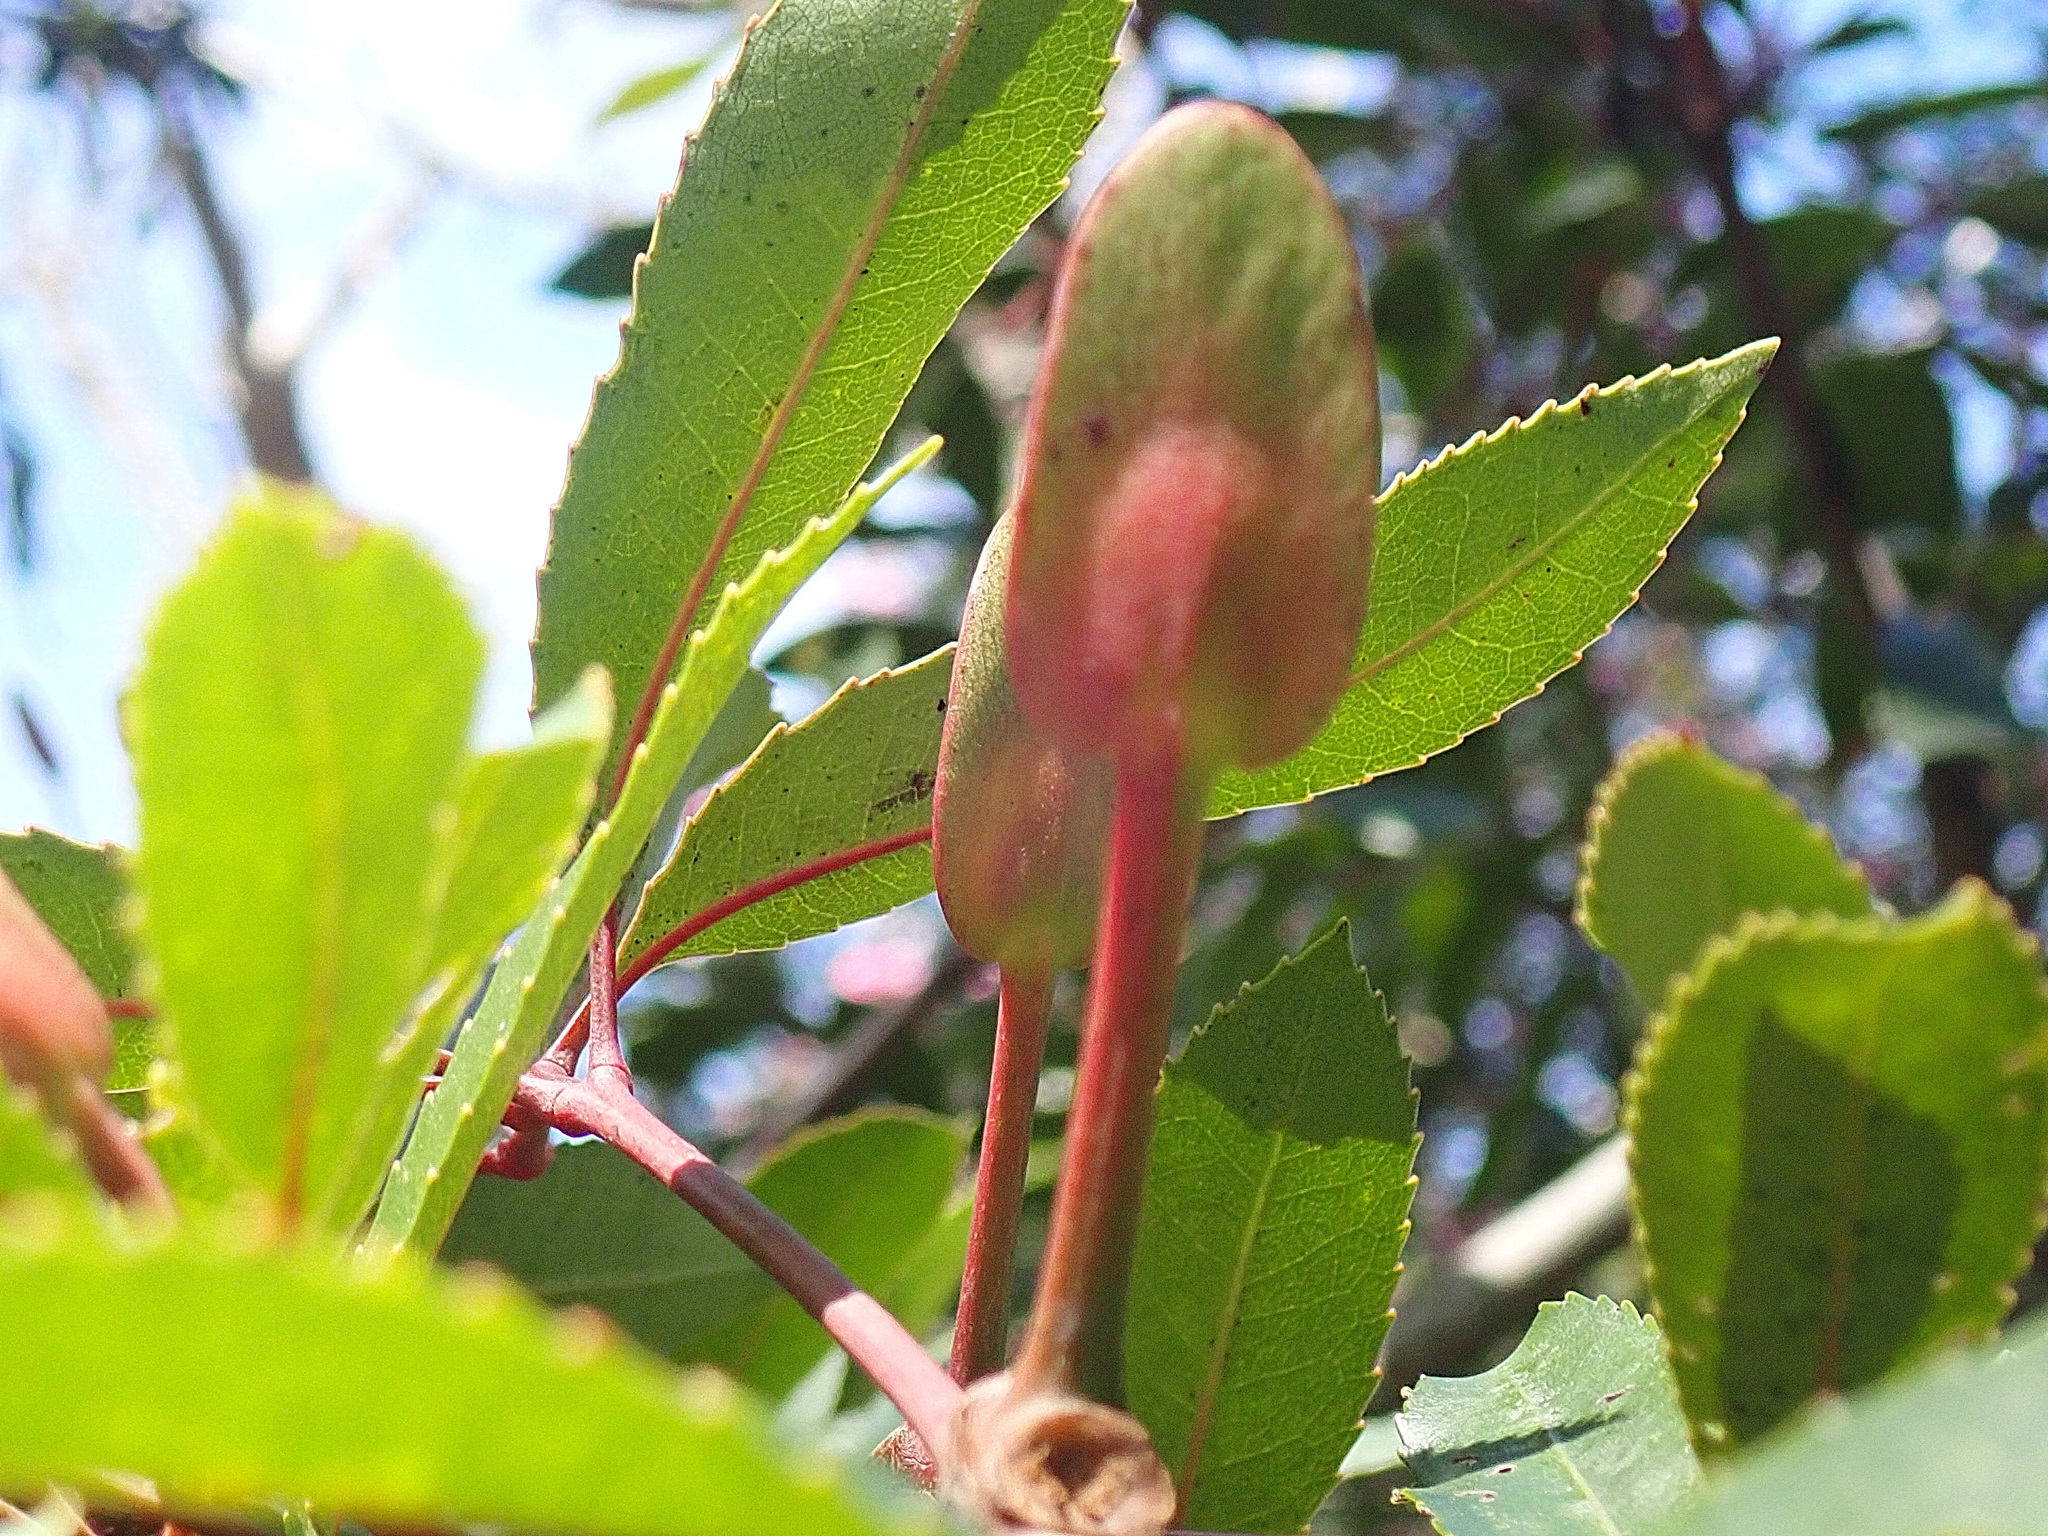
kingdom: Plantae
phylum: Tracheophyta
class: Magnoliopsida
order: Oxalidales
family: Cunoniaceae
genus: Cunonia
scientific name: Cunonia capensis
